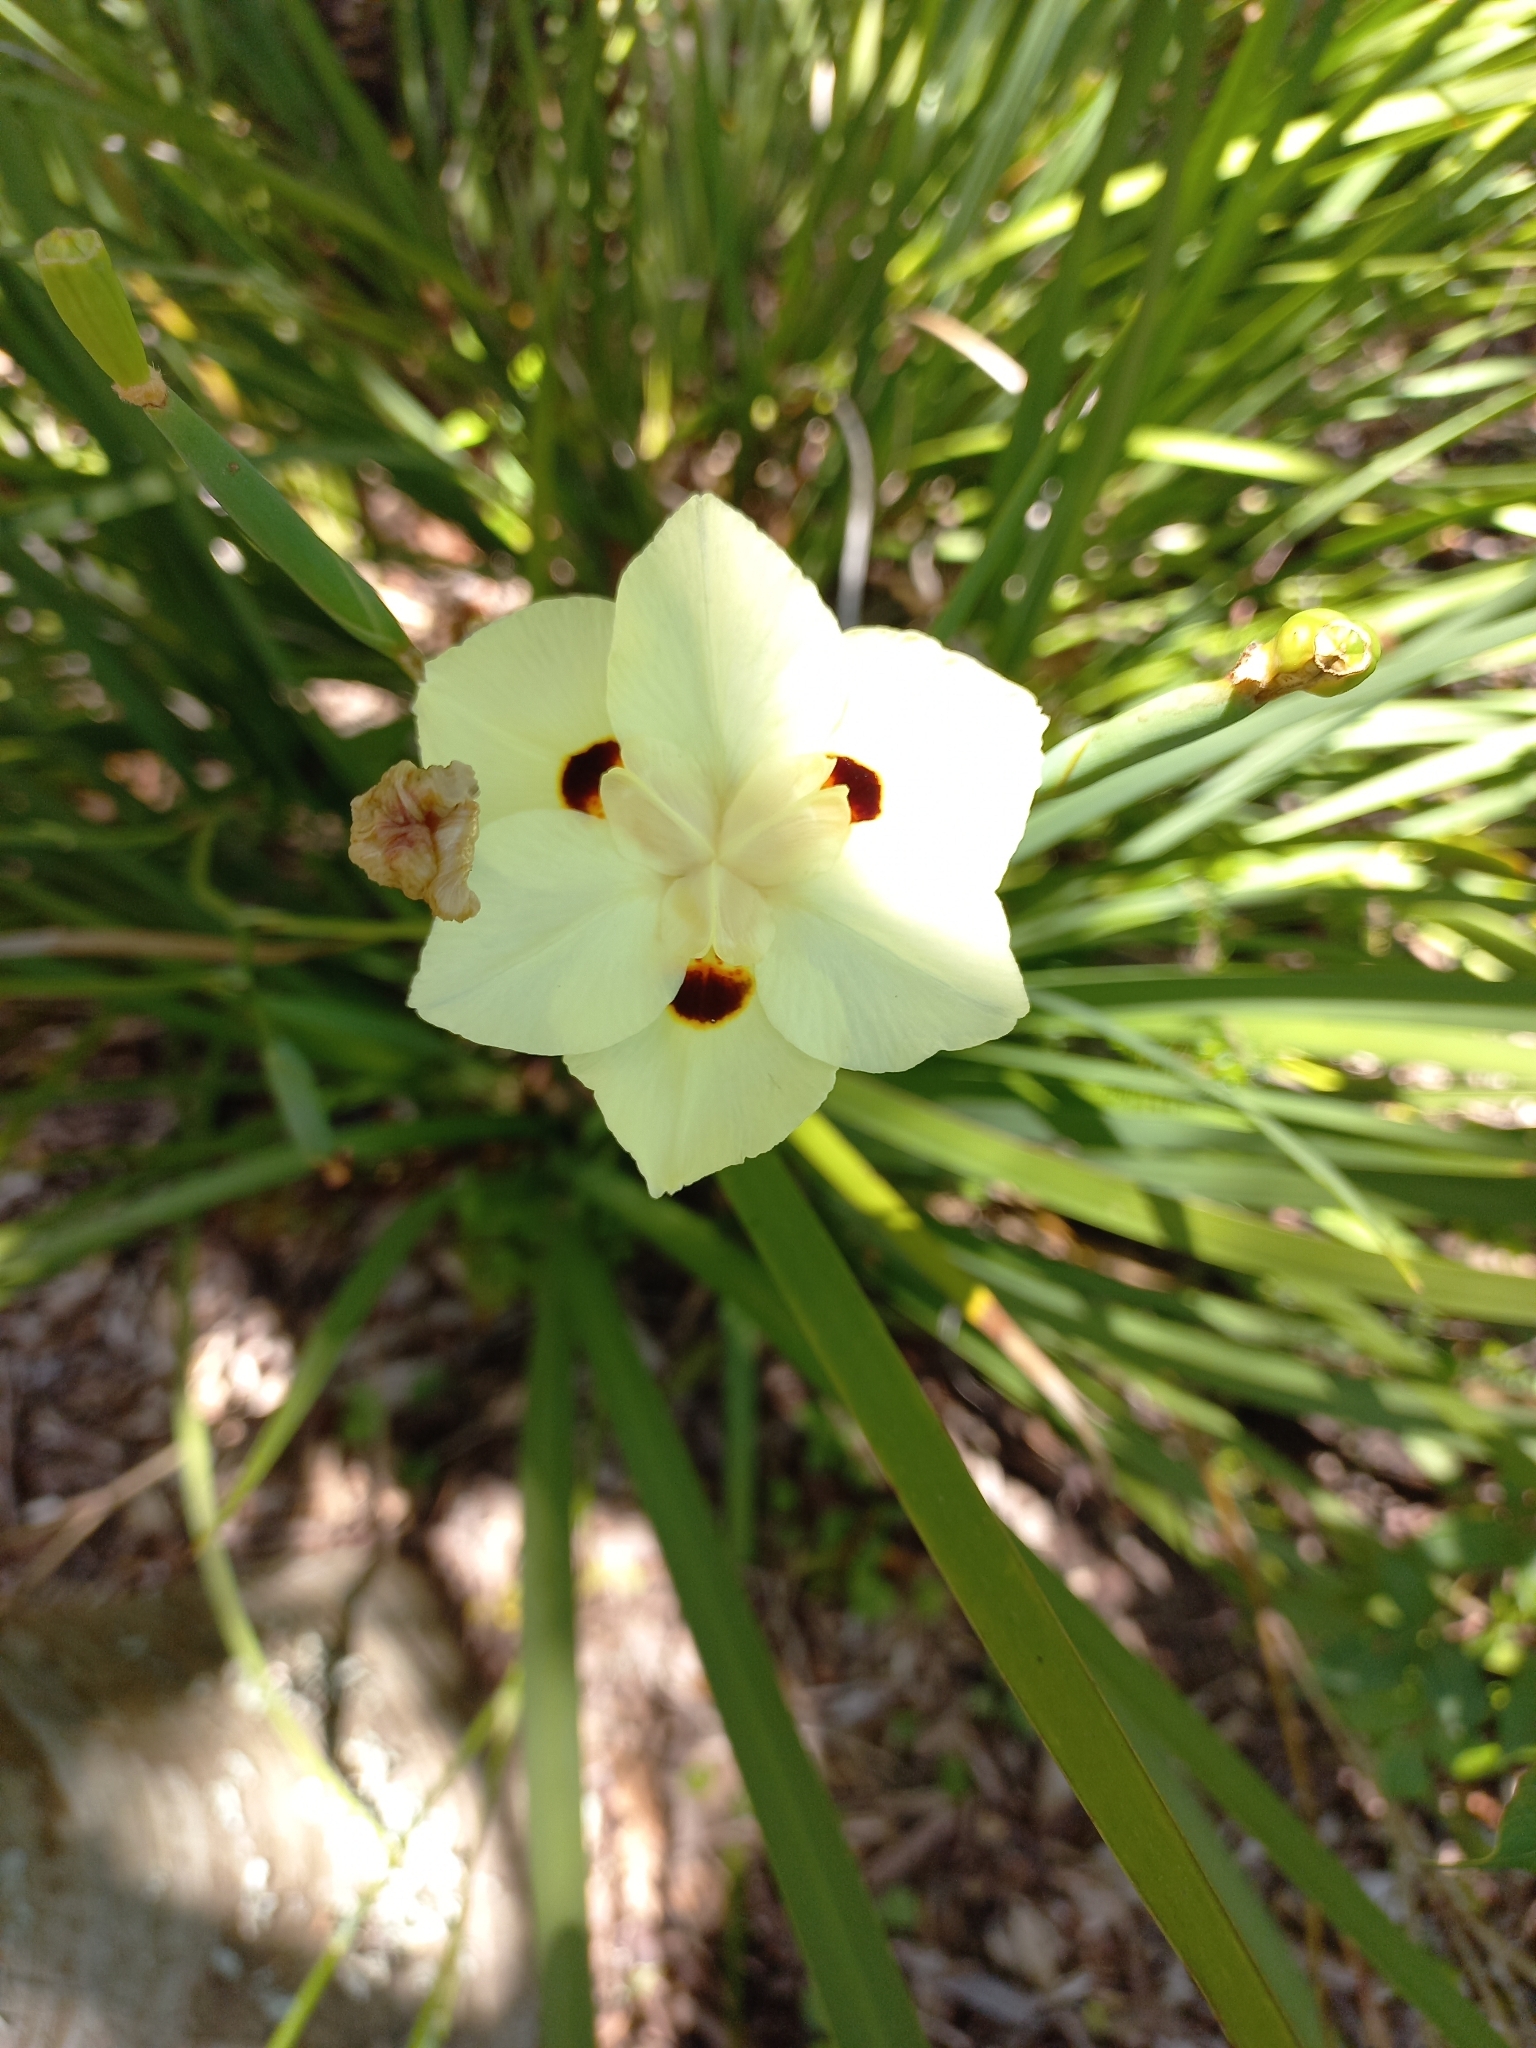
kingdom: Plantae
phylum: Tracheophyta
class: Liliopsida
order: Asparagales
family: Iridaceae
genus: Dietes
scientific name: Dietes bicolor
